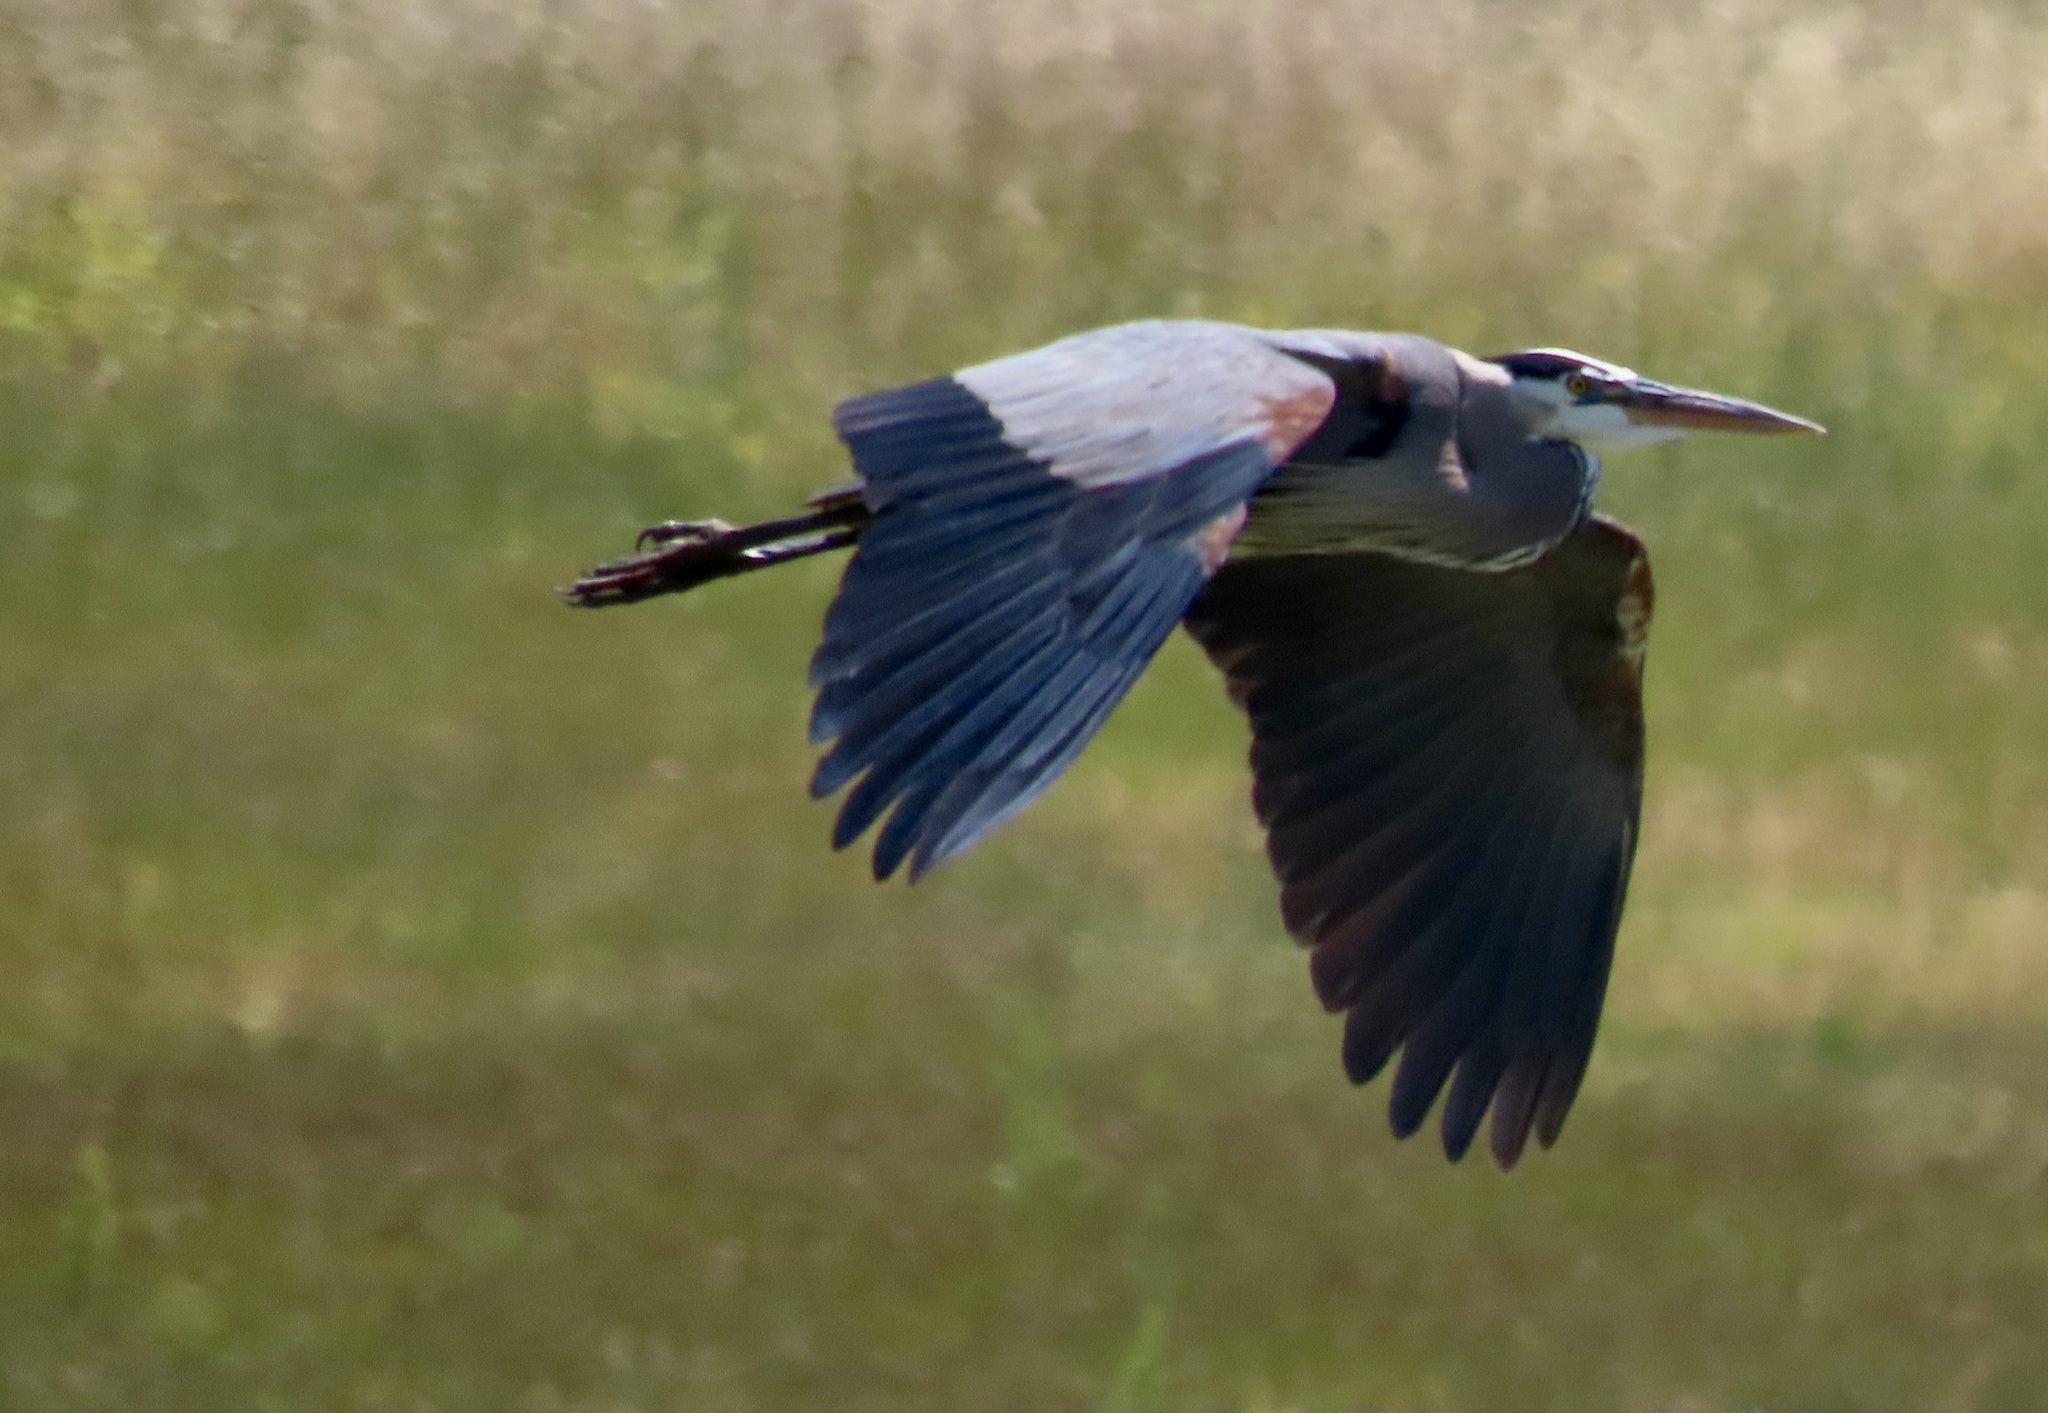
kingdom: Animalia
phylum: Chordata
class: Aves
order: Pelecaniformes
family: Ardeidae
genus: Ardea
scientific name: Ardea herodias
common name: Great blue heron
